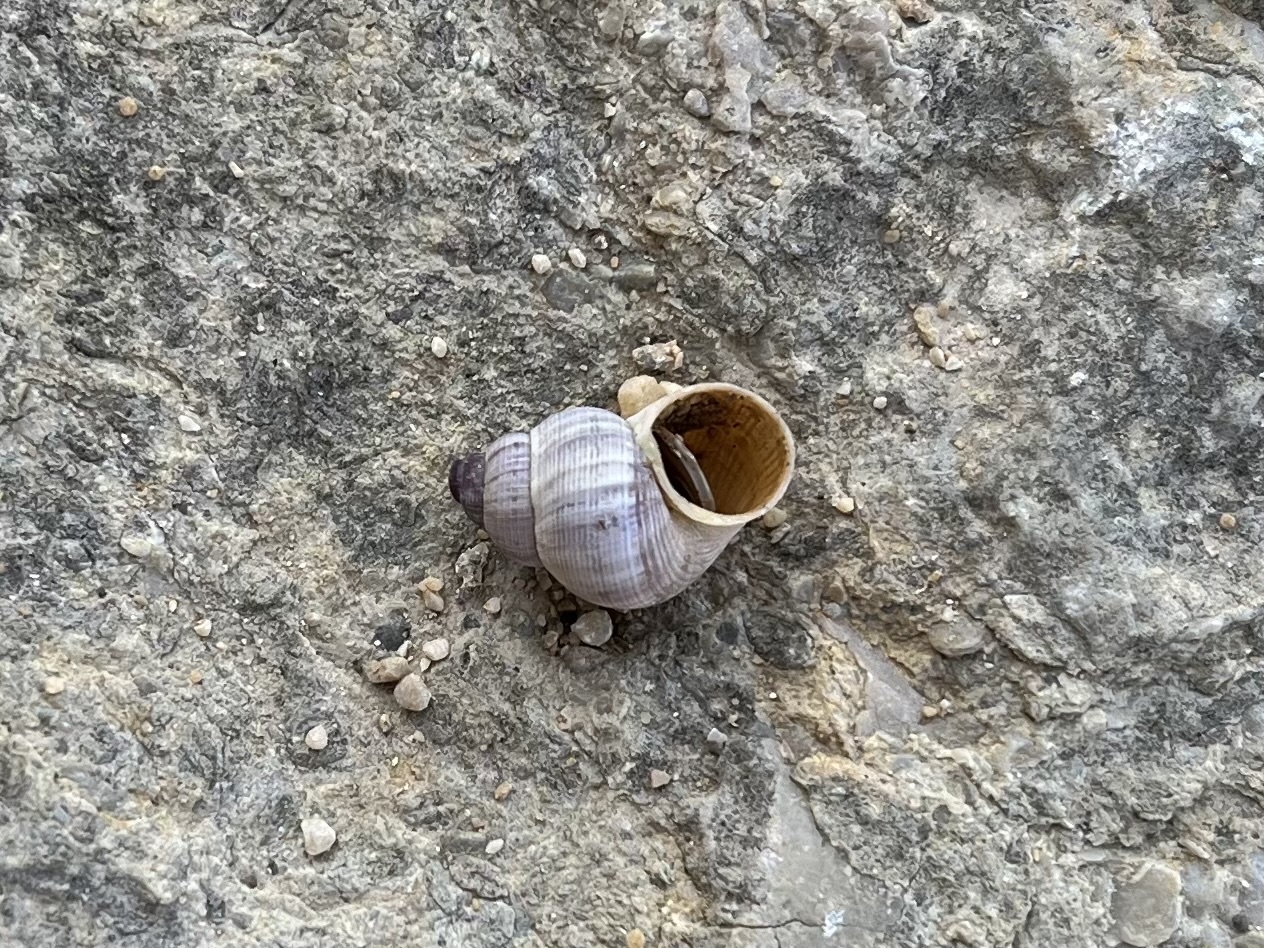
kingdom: Animalia
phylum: Mollusca
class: Gastropoda
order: Littorinimorpha
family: Pomatiidae
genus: Pomatias
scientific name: Pomatias elegans
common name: Red-mouthed snail
